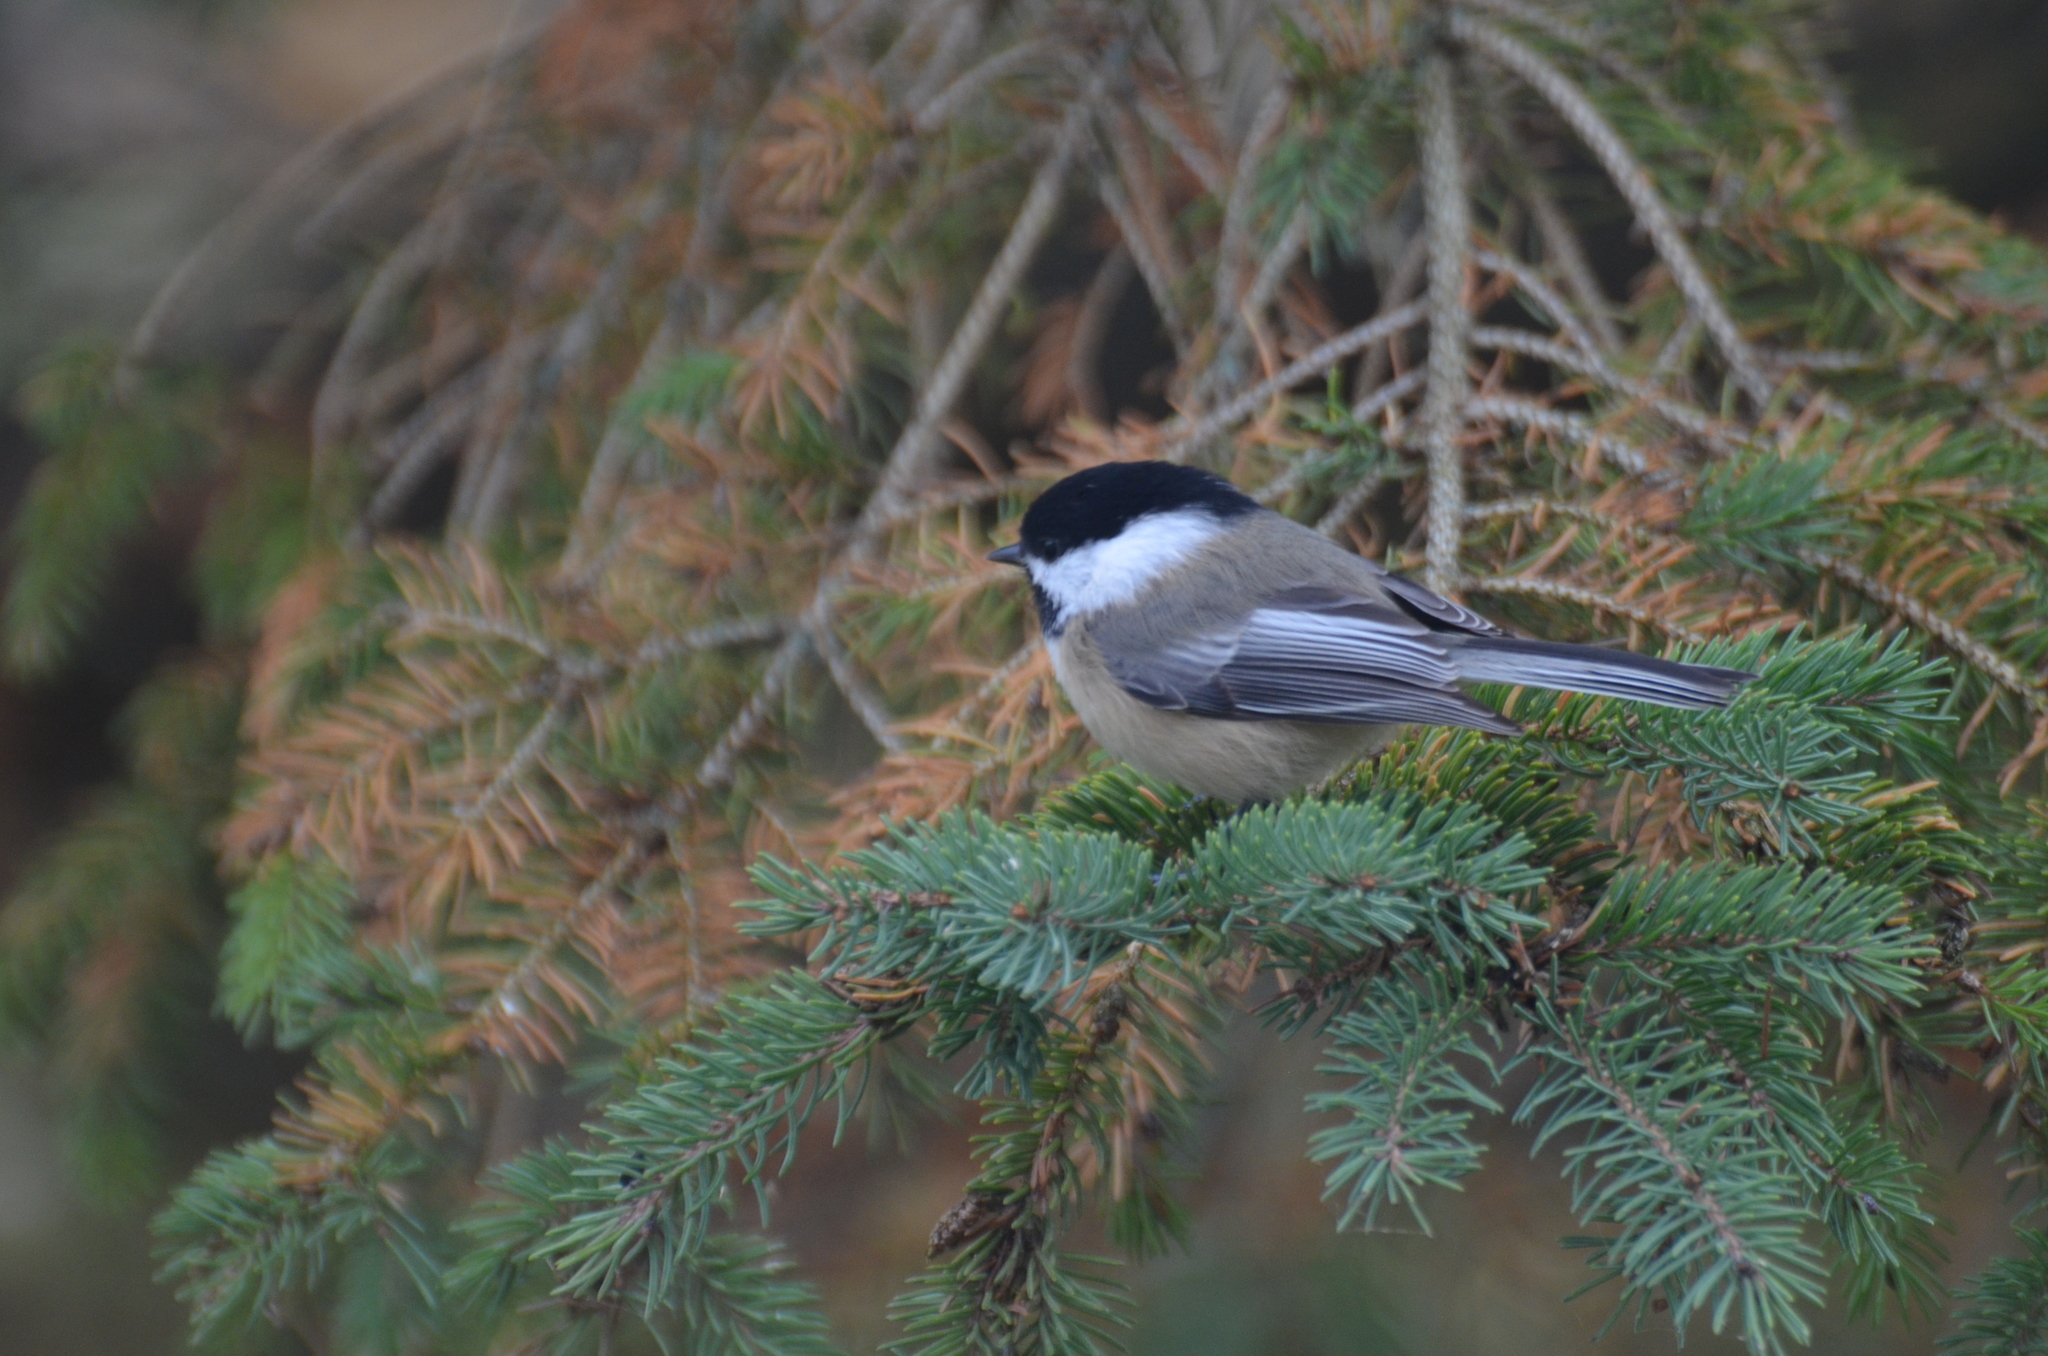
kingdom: Animalia
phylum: Chordata
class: Aves
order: Passeriformes
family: Paridae
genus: Poecile
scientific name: Poecile atricapillus
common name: Black-capped chickadee
